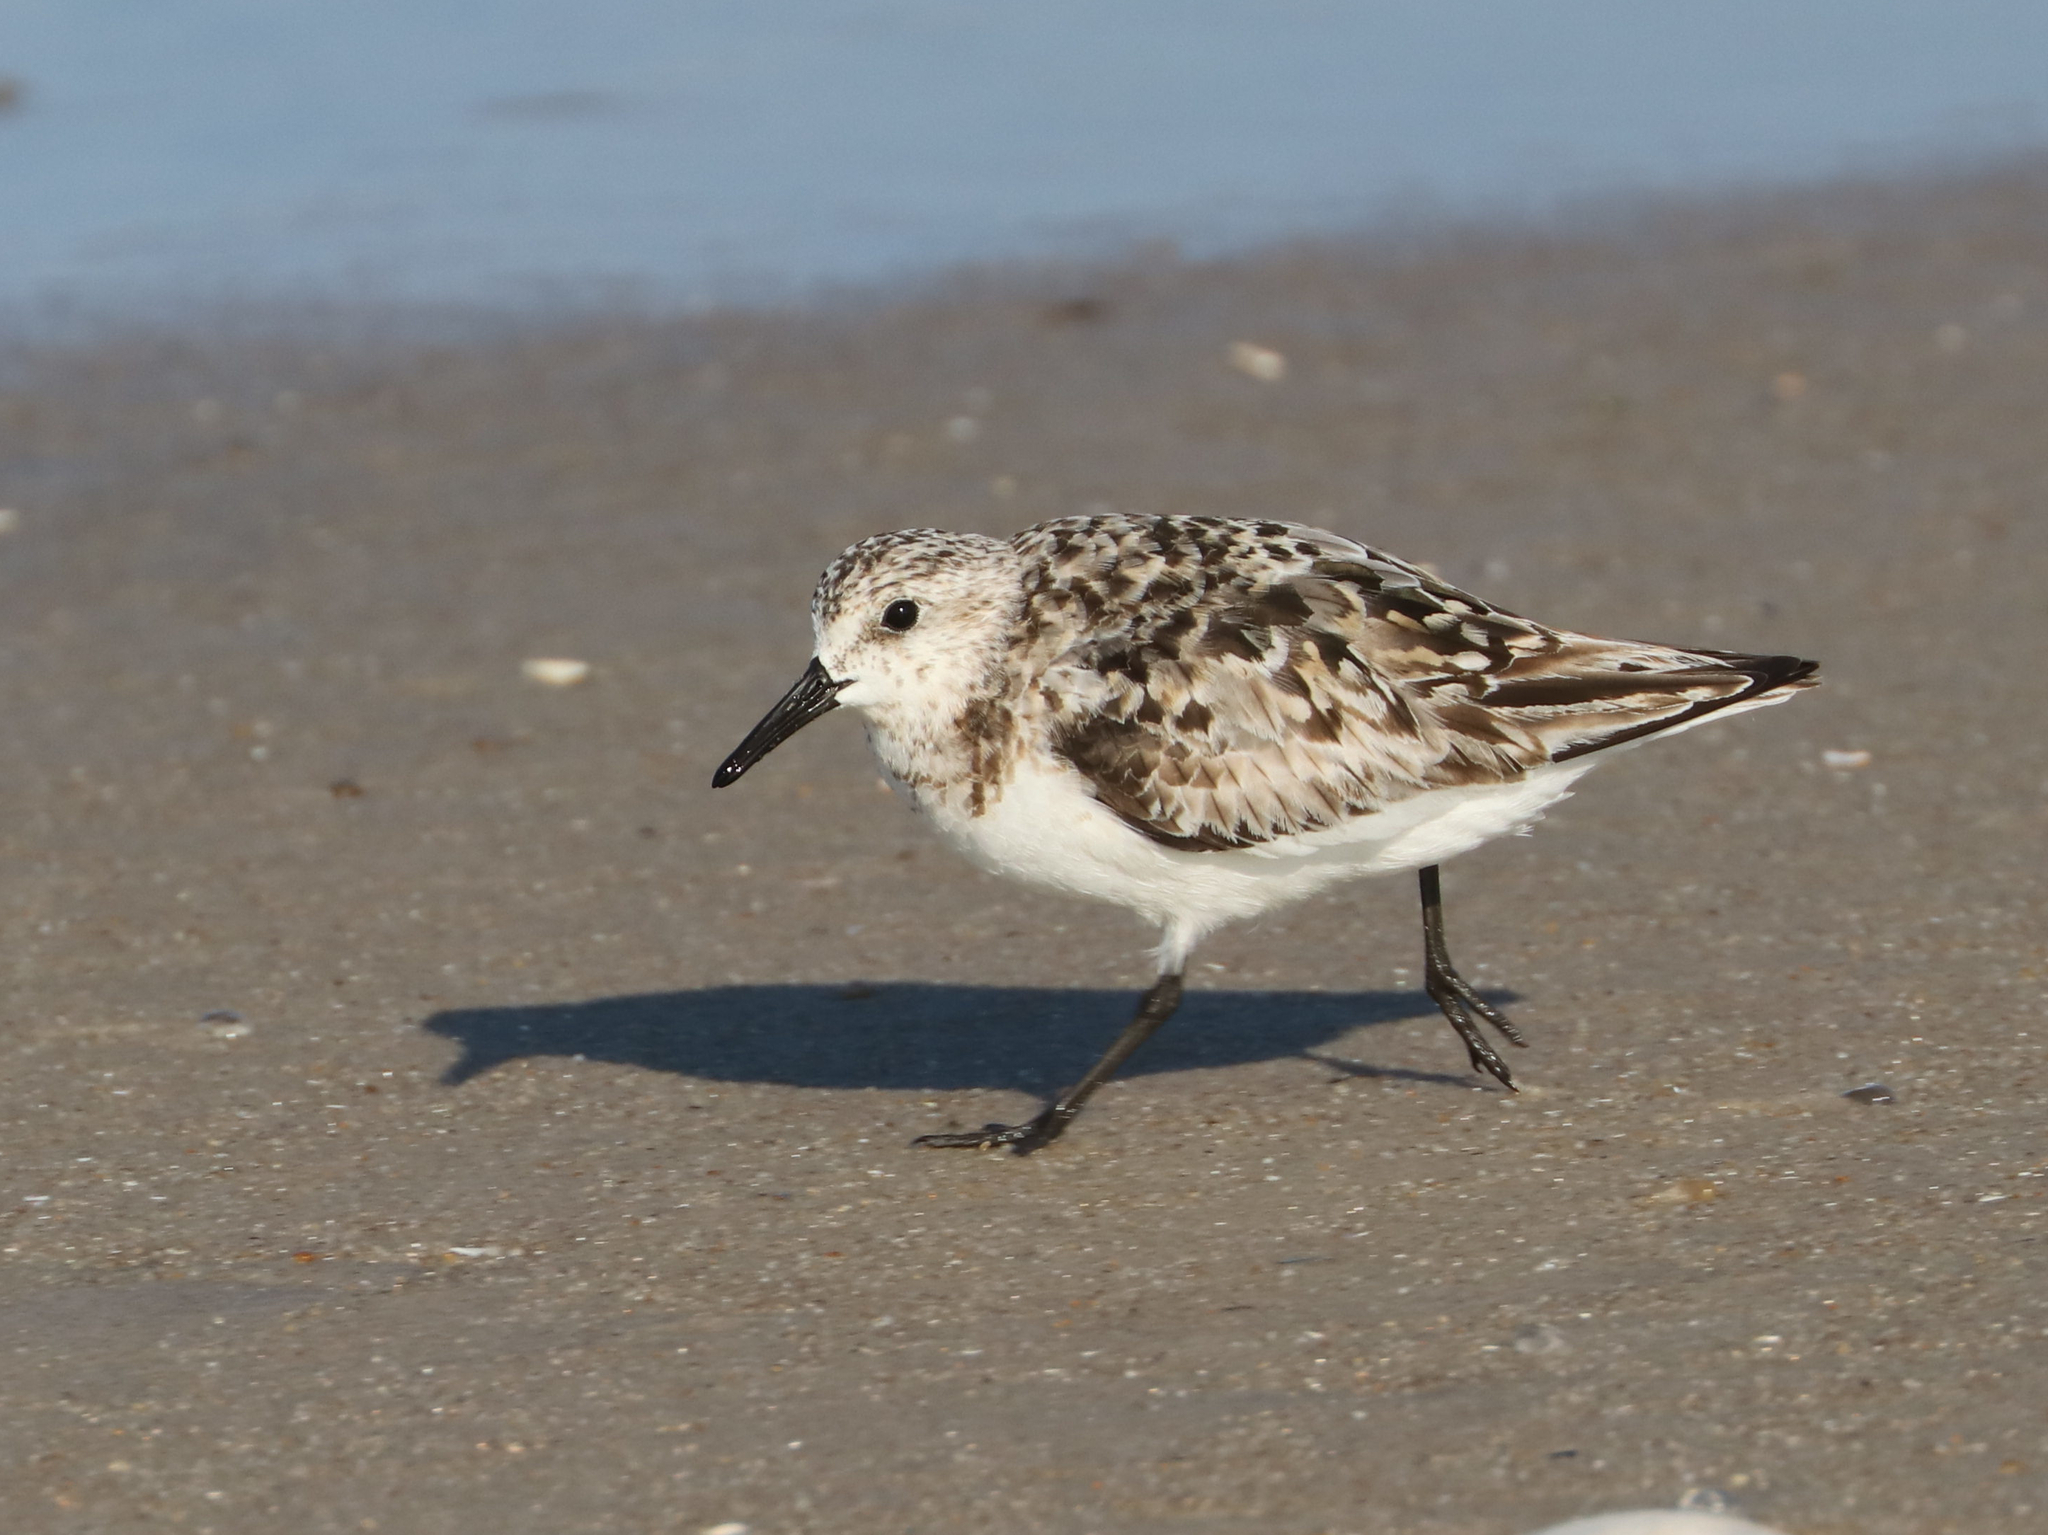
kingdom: Animalia
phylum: Chordata
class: Aves
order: Charadriiformes
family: Scolopacidae
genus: Calidris
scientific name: Calidris alba
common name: Sanderling
